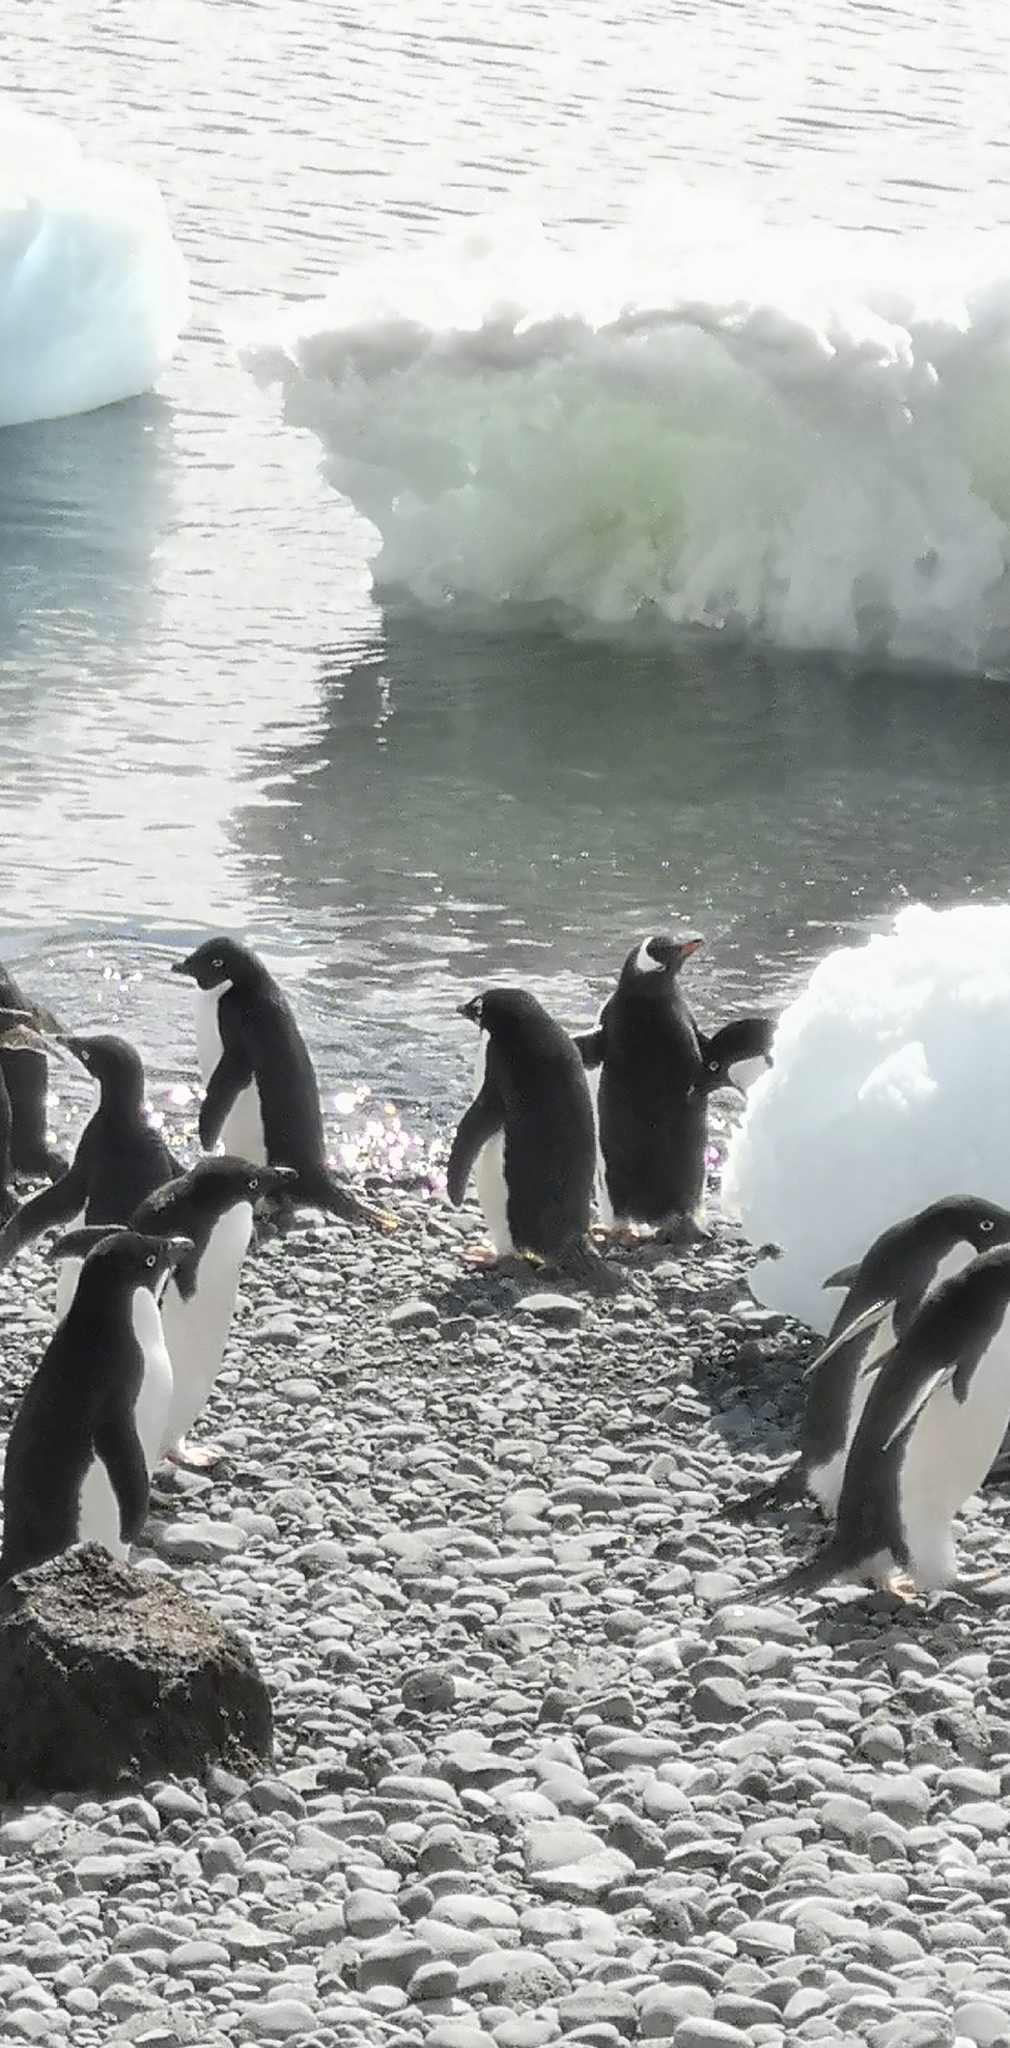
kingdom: Animalia
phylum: Chordata
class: Aves
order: Sphenisciformes
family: Spheniscidae
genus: Pygoscelis
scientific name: Pygoscelis adeliae
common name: Adelie penguin
